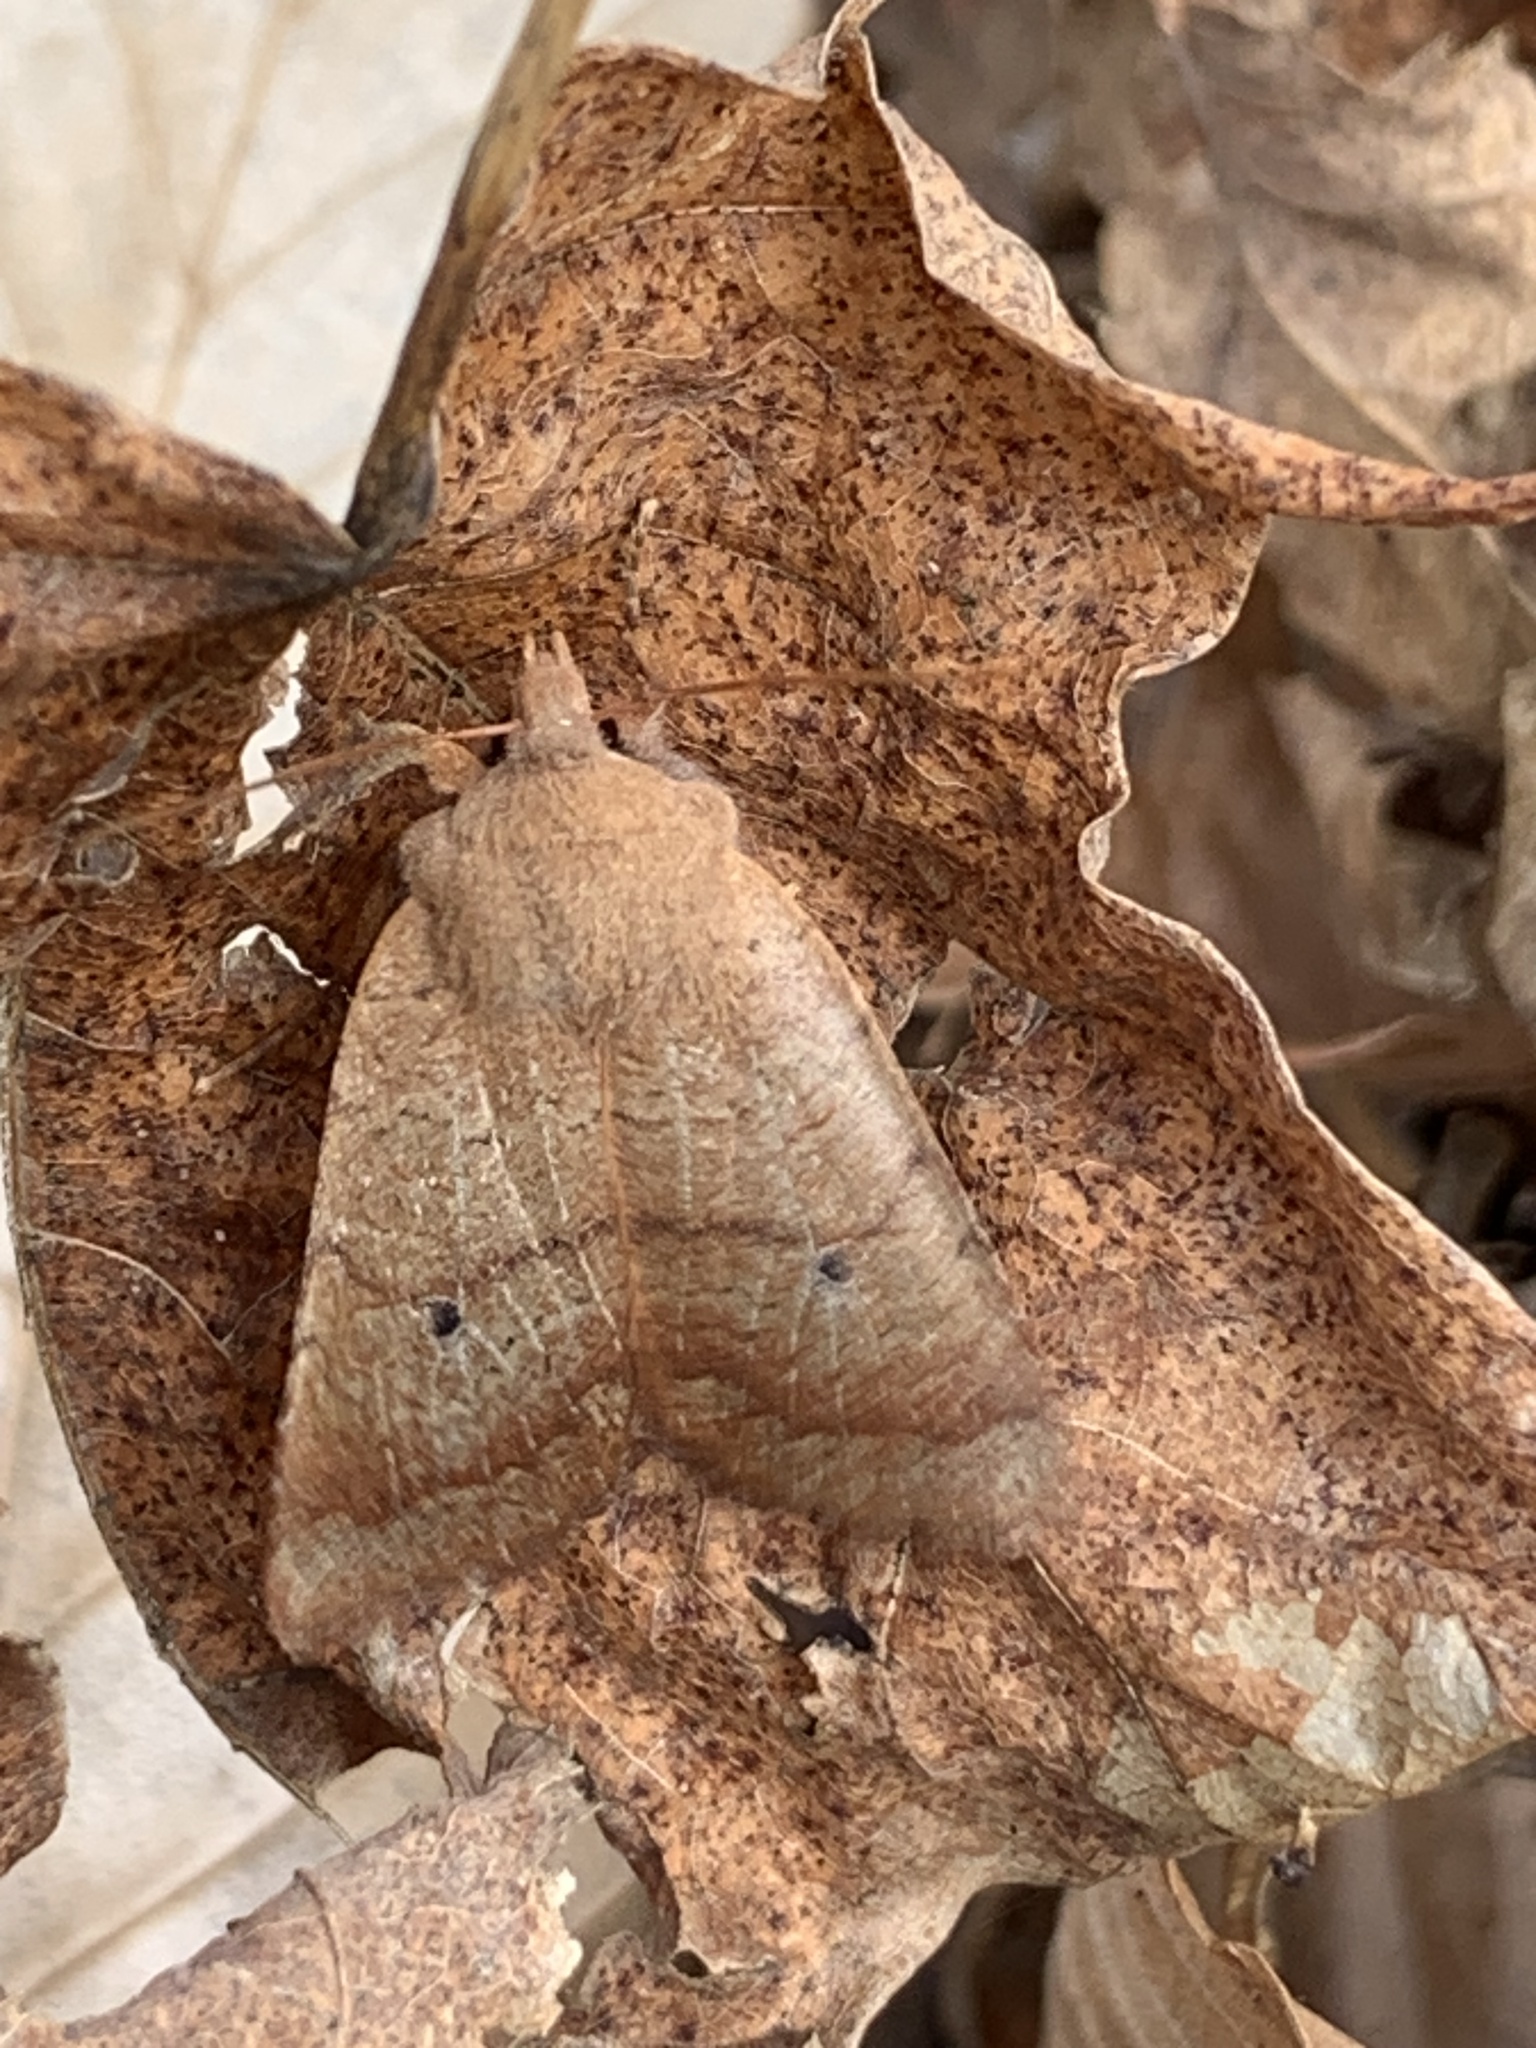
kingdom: Animalia
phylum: Arthropoda
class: Insecta
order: Lepidoptera
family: Noctuidae
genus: Sericaglaea
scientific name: Sericaglaea signata
